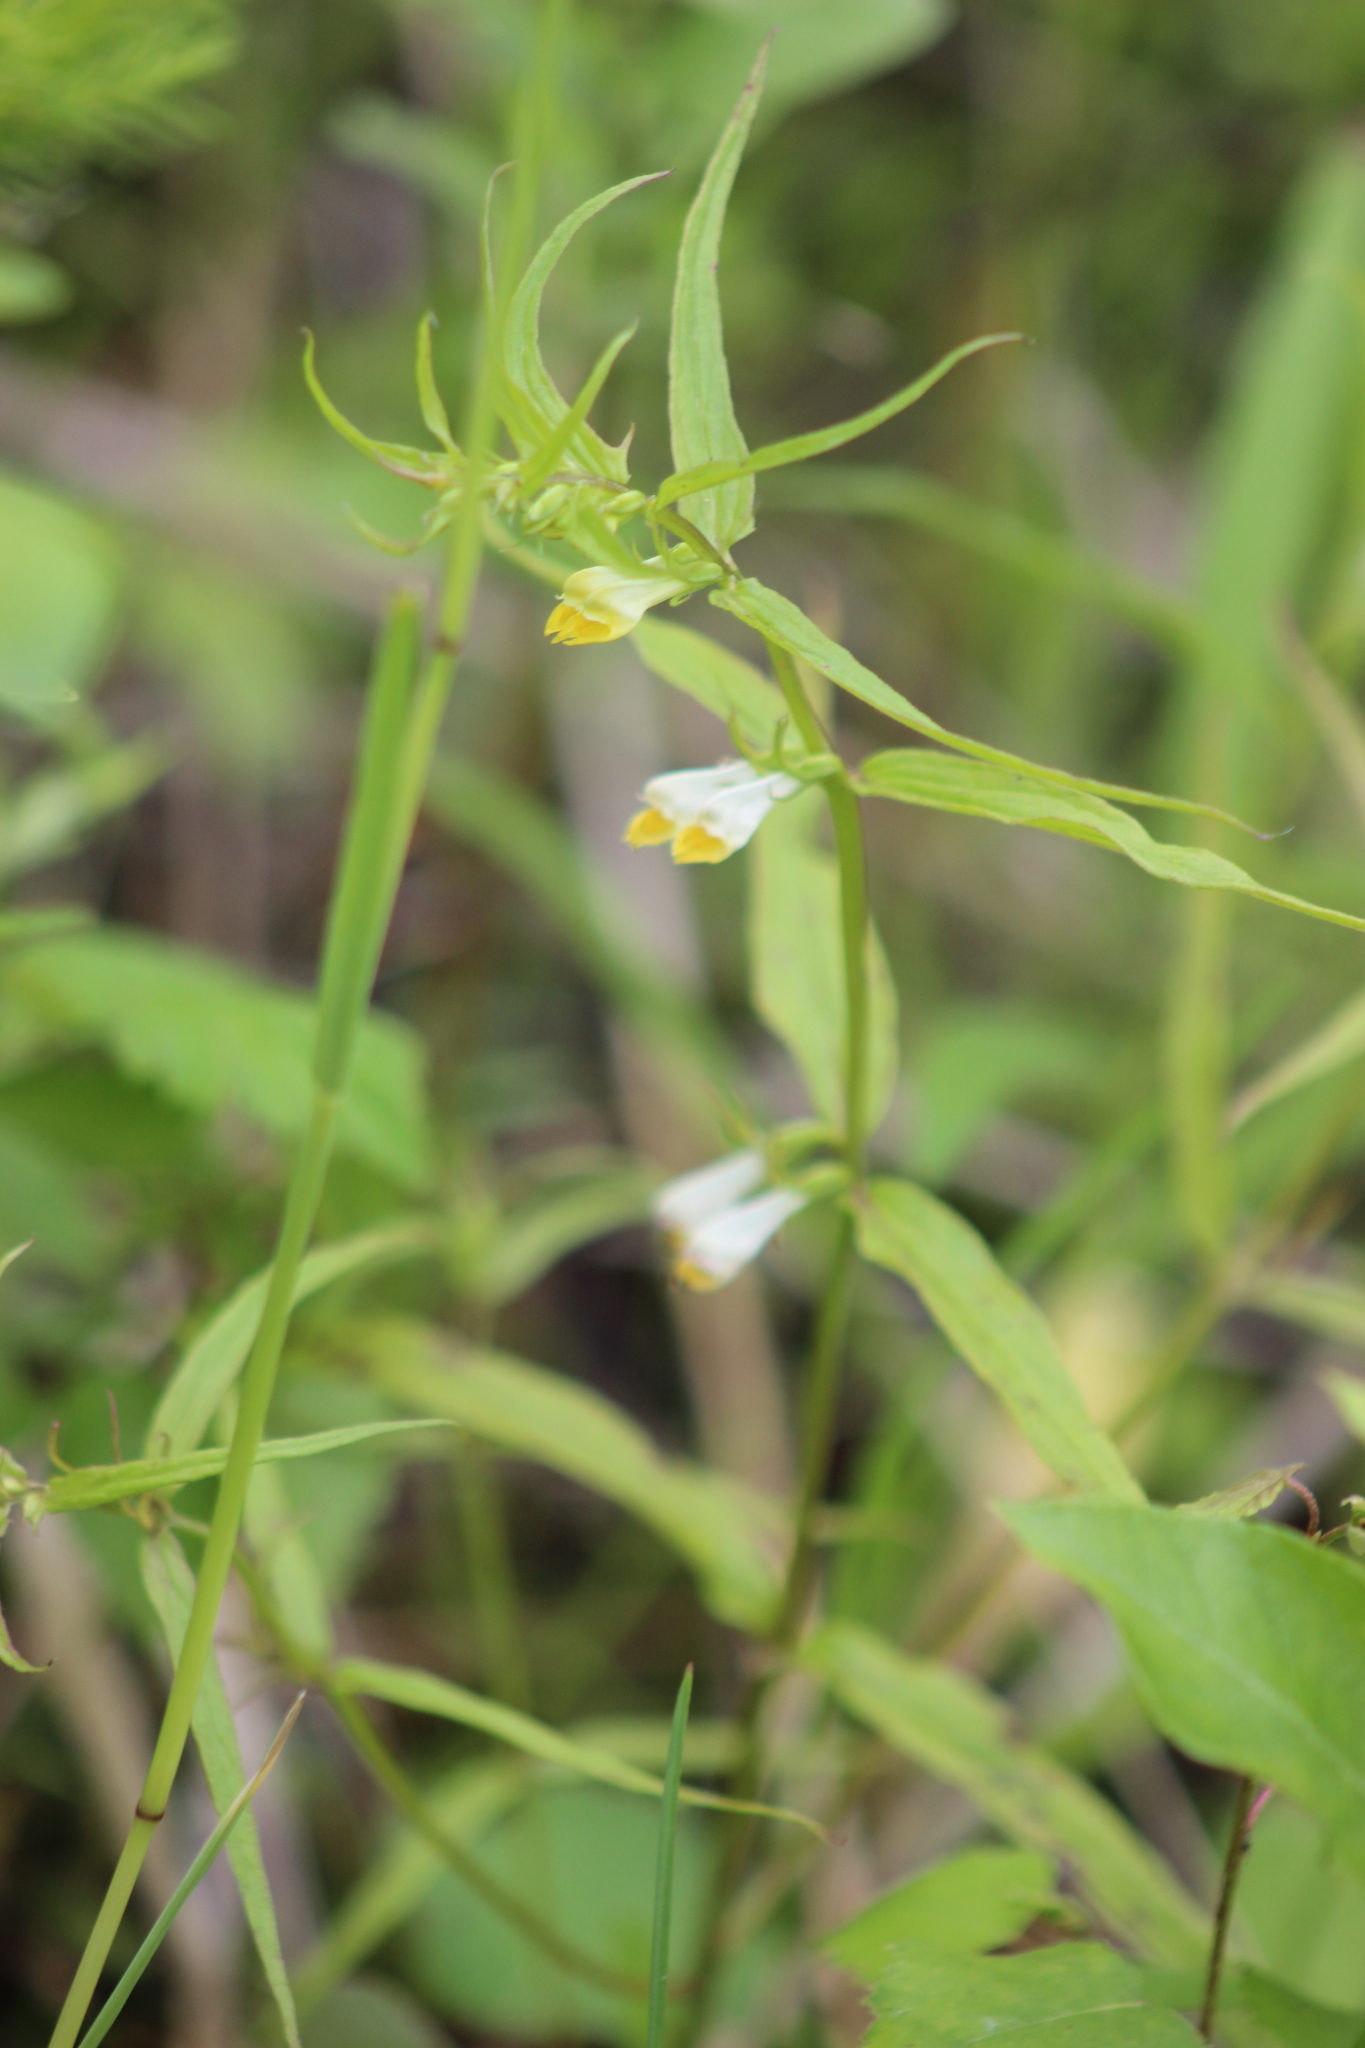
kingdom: Plantae
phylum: Tracheophyta
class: Magnoliopsida
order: Lamiales
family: Orobanchaceae
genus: Melampyrum
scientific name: Melampyrum pratense
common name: Common cow-wheat
